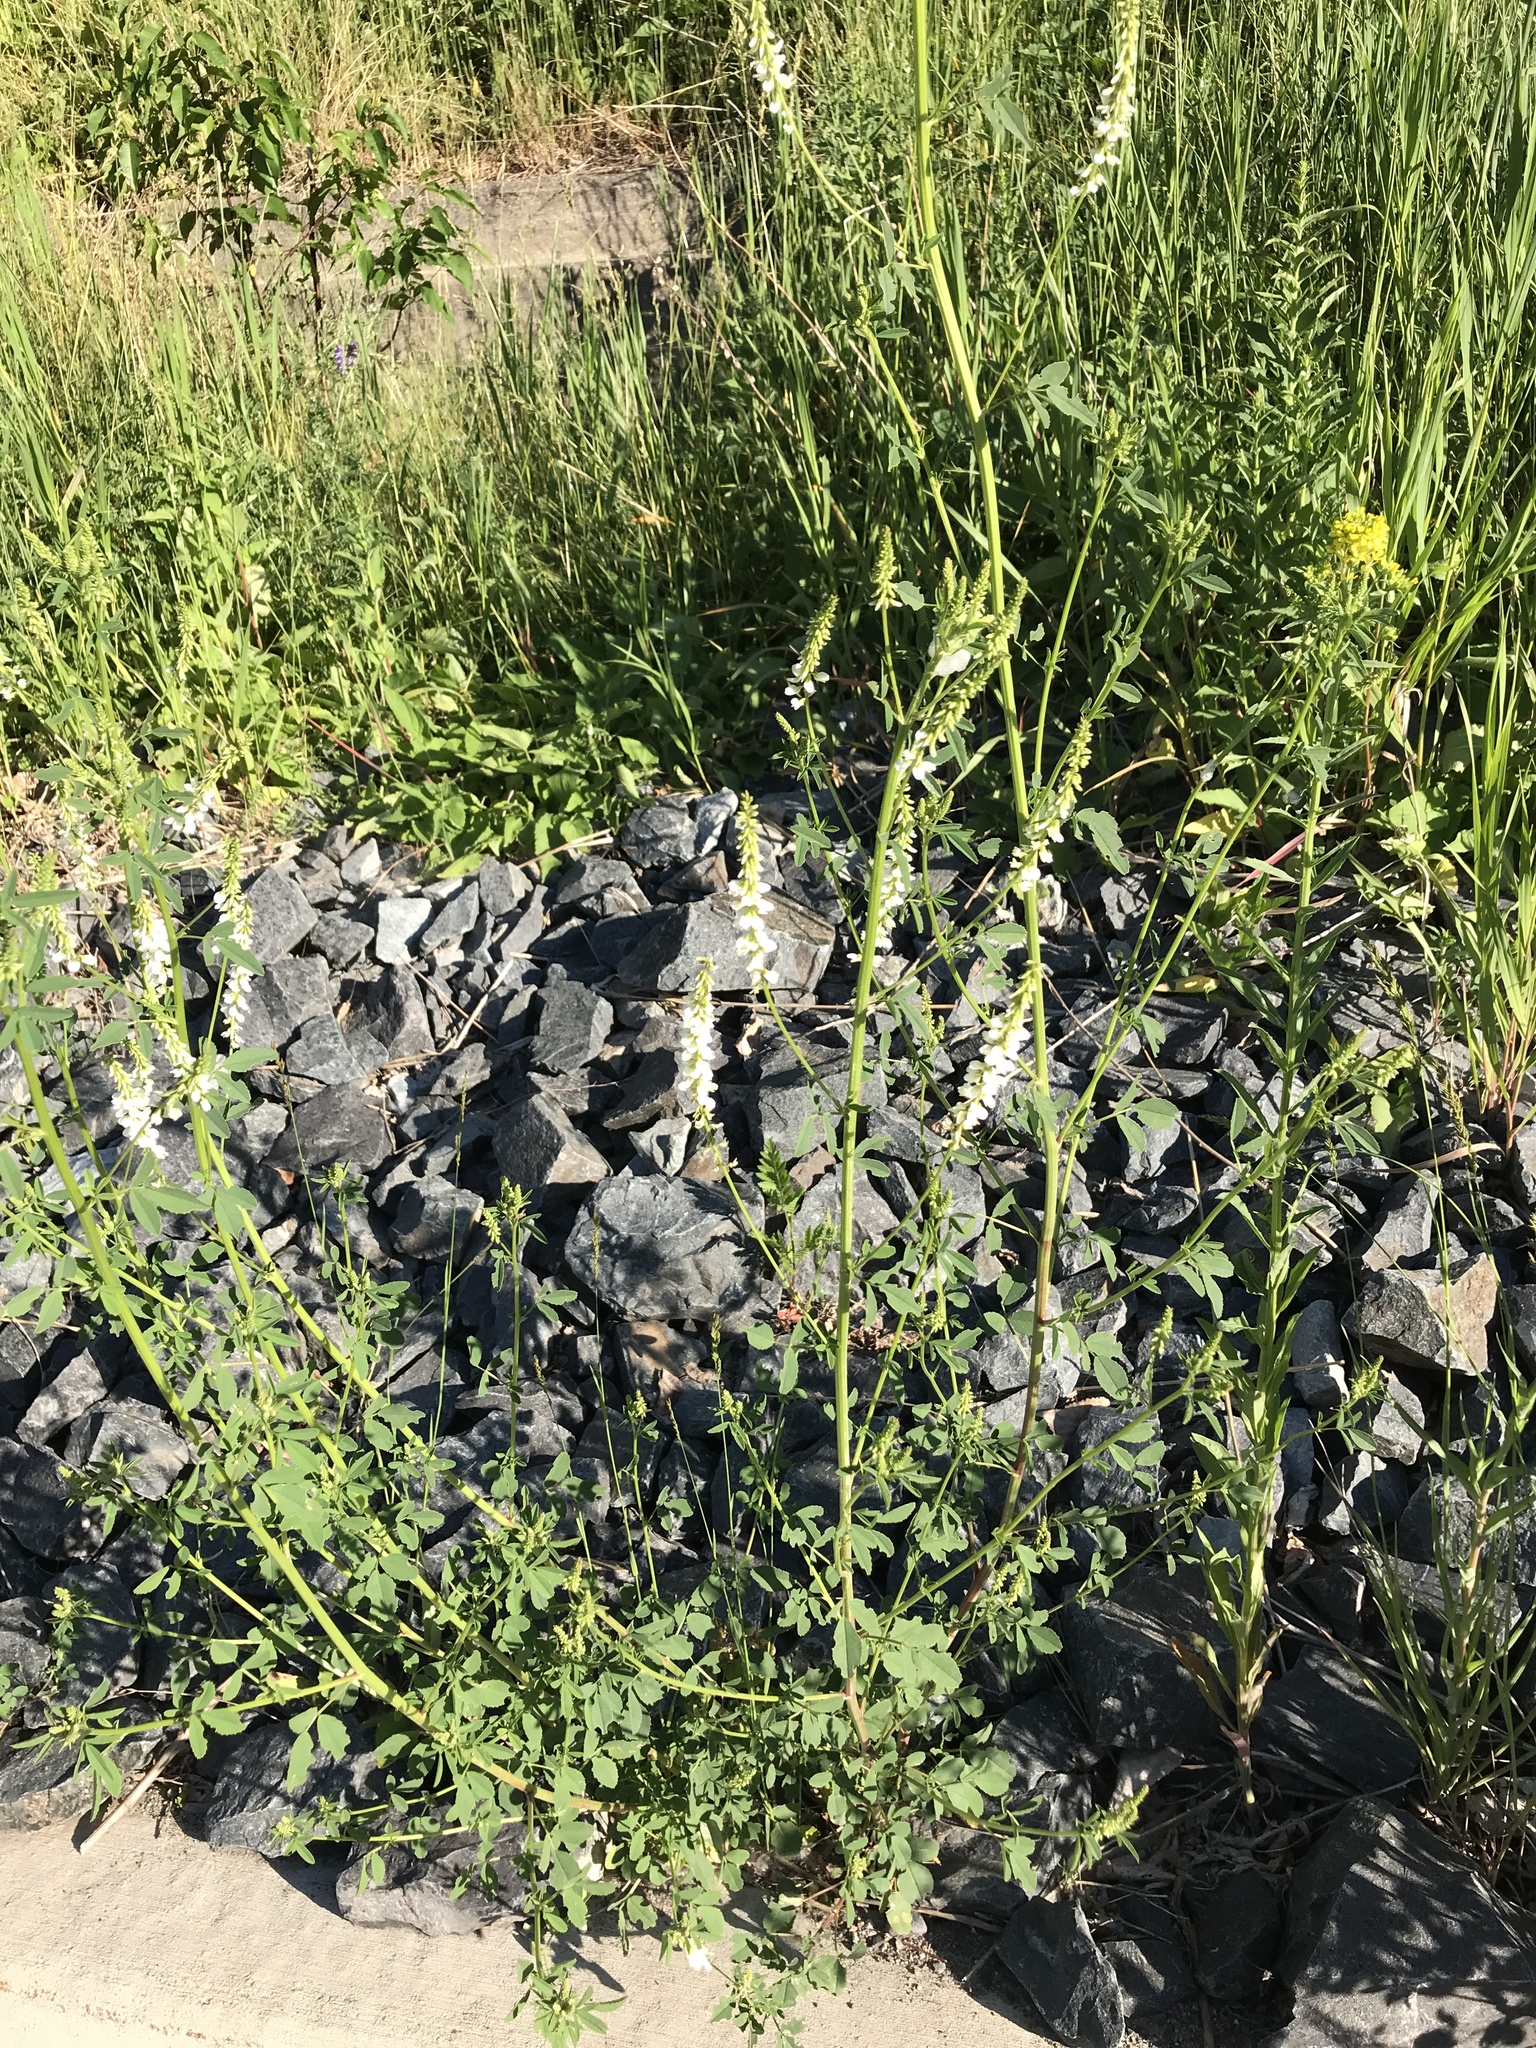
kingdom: Plantae
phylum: Tracheophyta
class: Magnoliopsida
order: Fabales
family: Fabaceae
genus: Melilotus
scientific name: Melilotus albus
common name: White melilot
